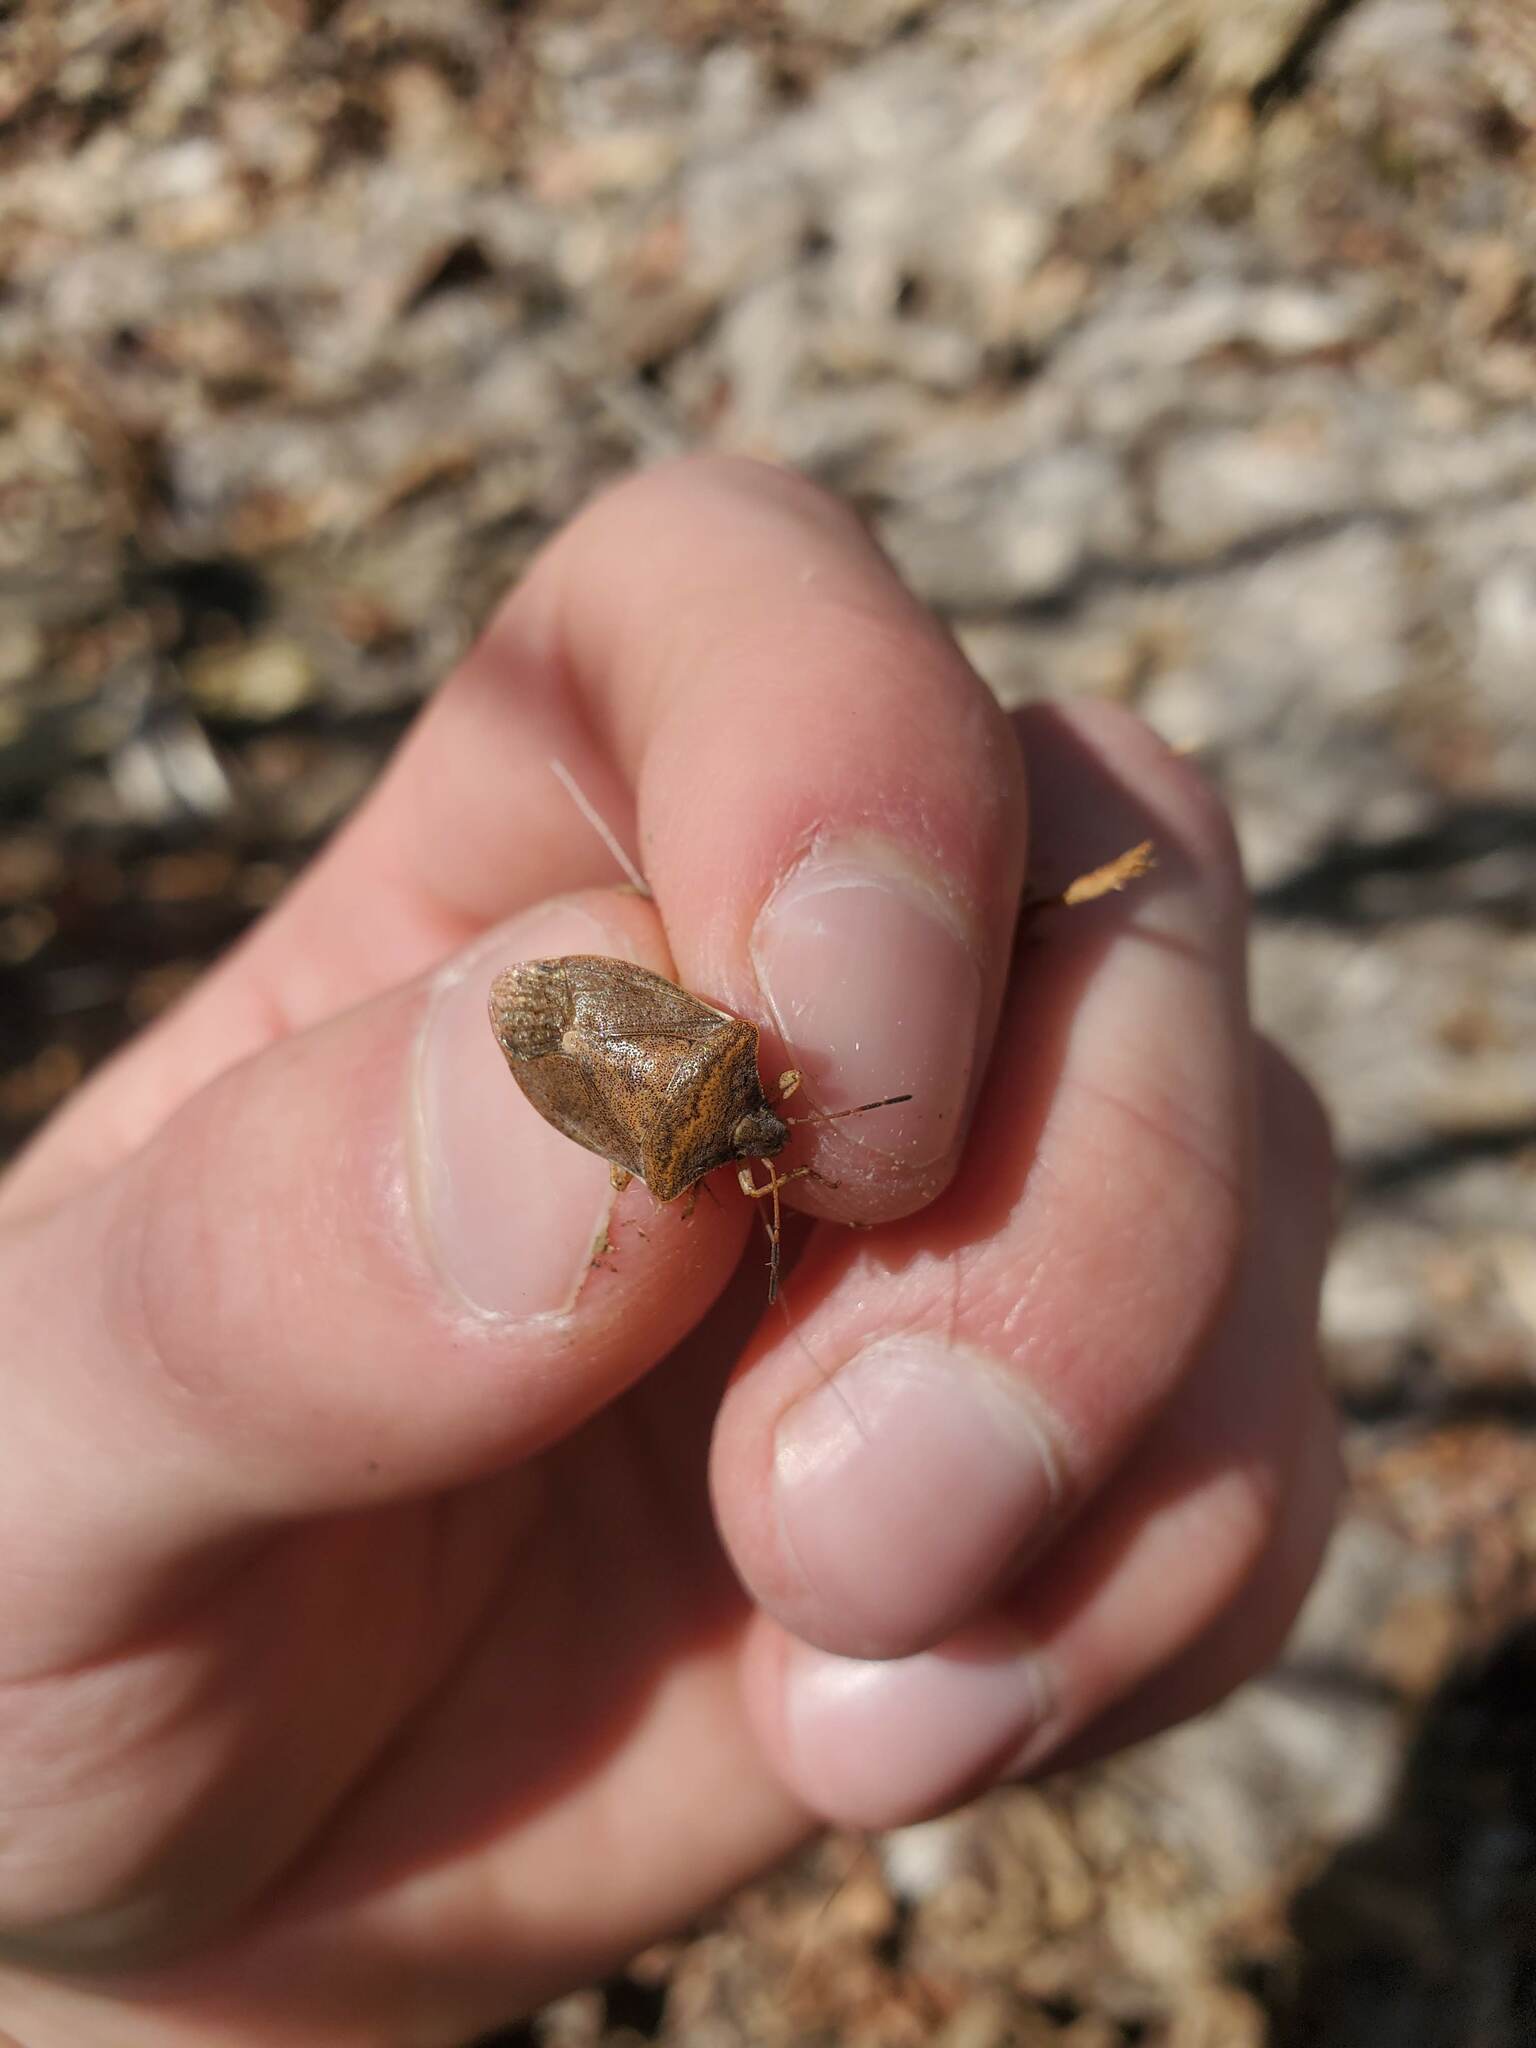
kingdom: Animalia
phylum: Arthropoda
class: Insecta
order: Hemiptera
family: Pentatomidae
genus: Euschistus
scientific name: Euschistus servus
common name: Brown stink bug
